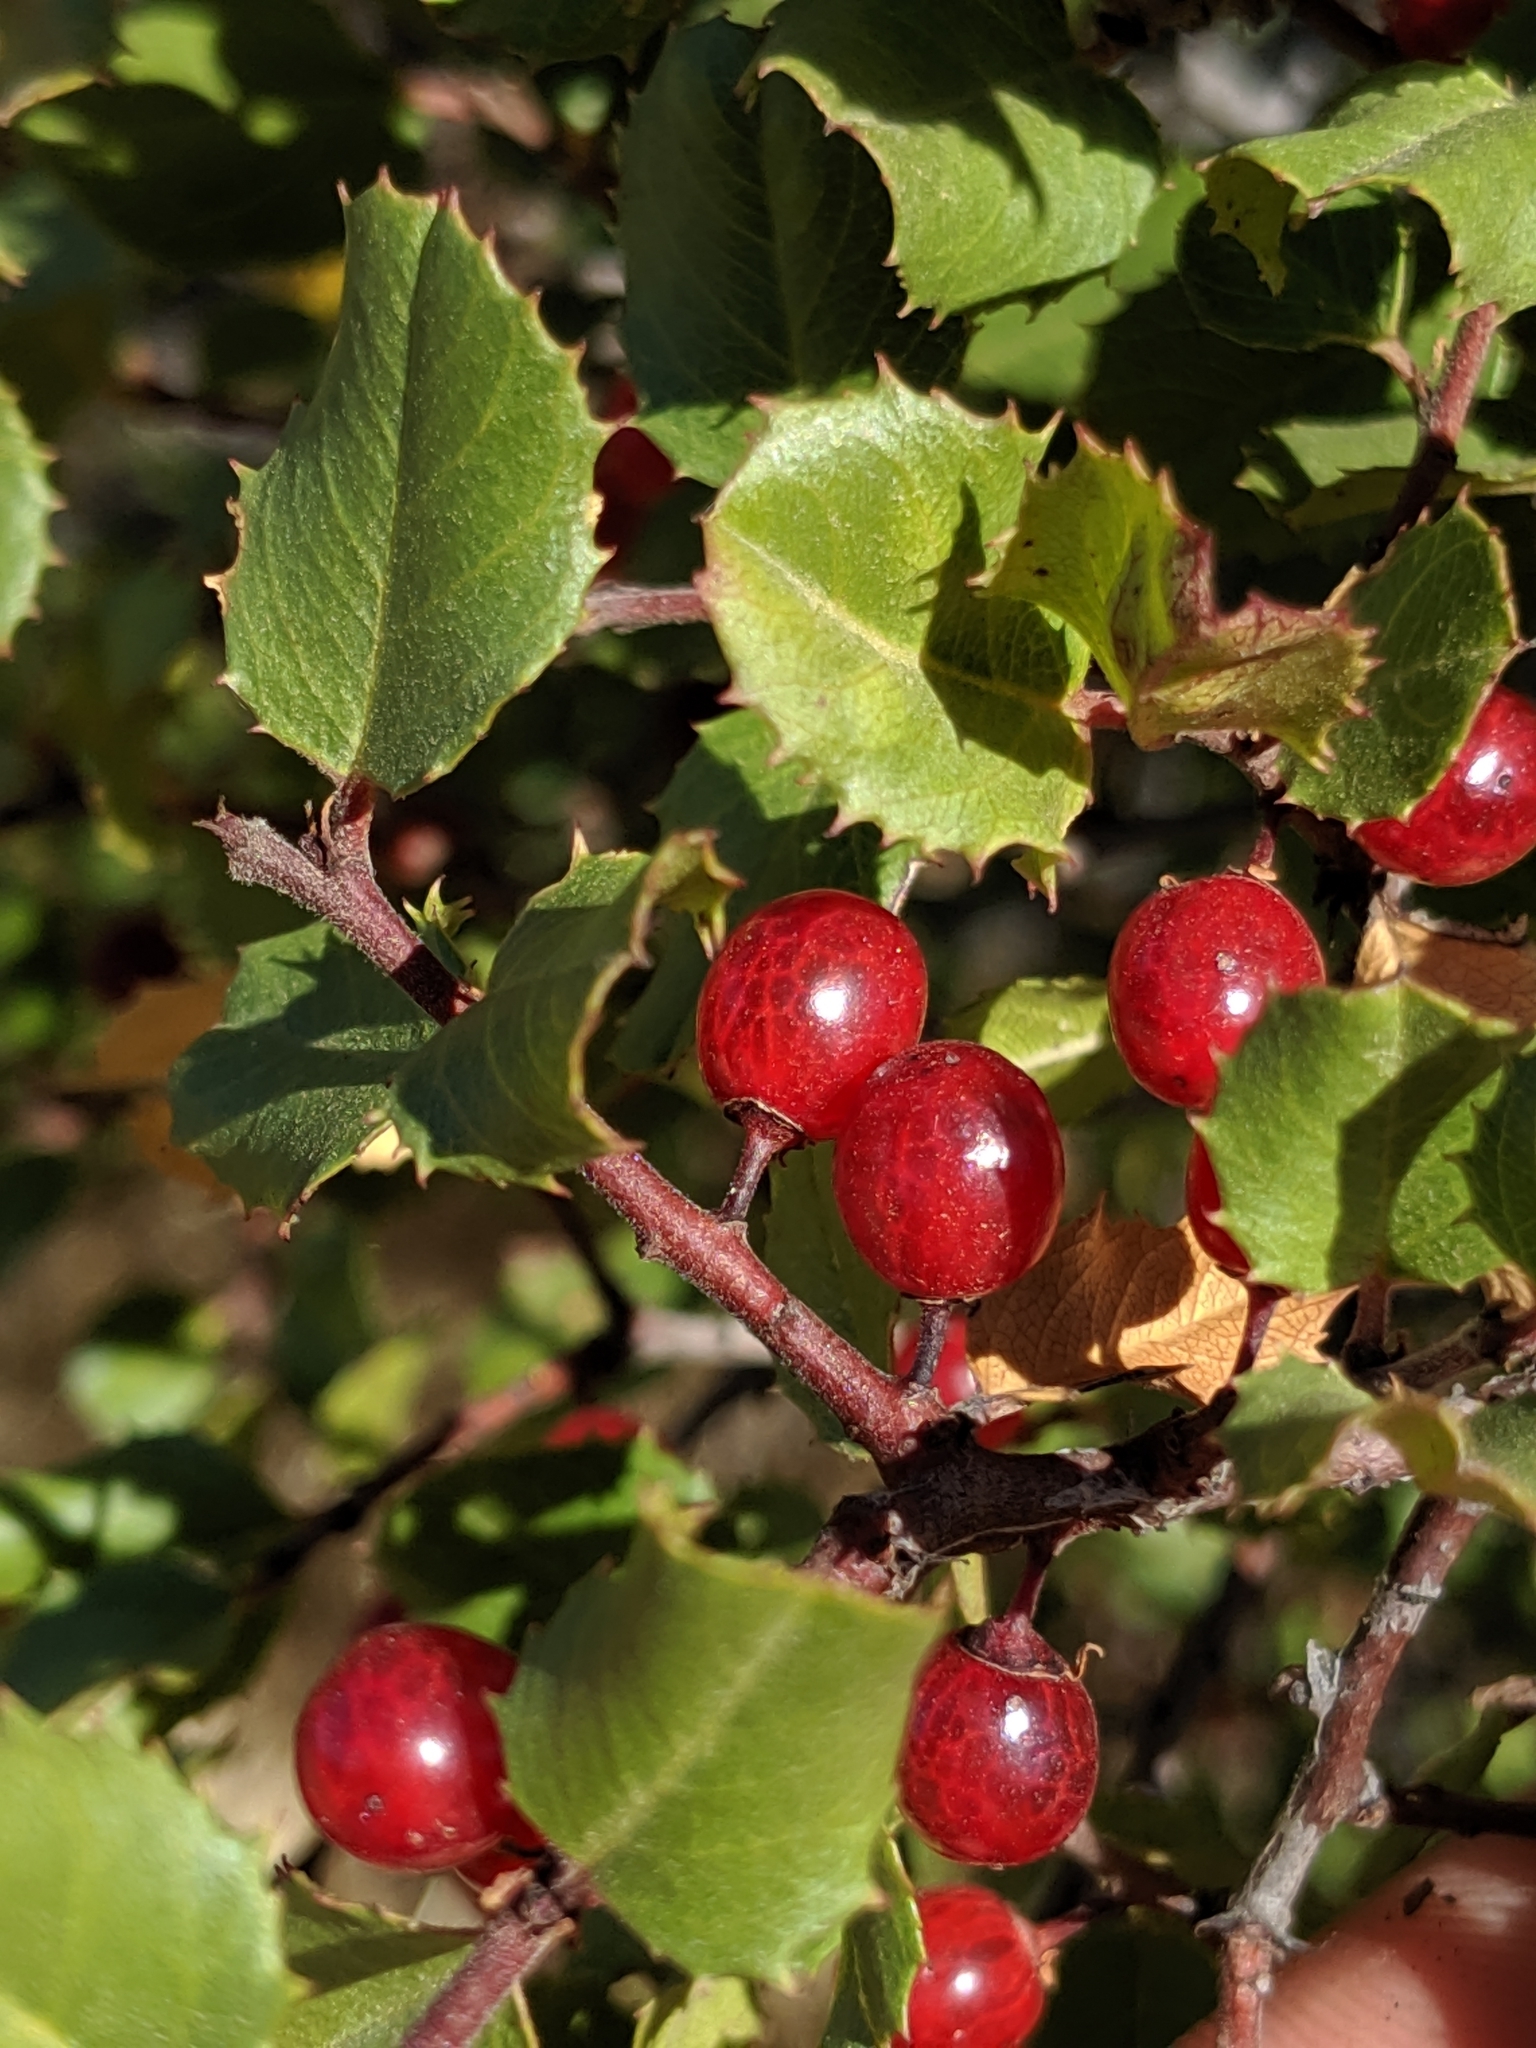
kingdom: Plantae
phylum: Tracheophyta
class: Magnoliopsida
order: Rosales
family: Rhamnaceae
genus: Endotropis
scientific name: Endotropis crocea
